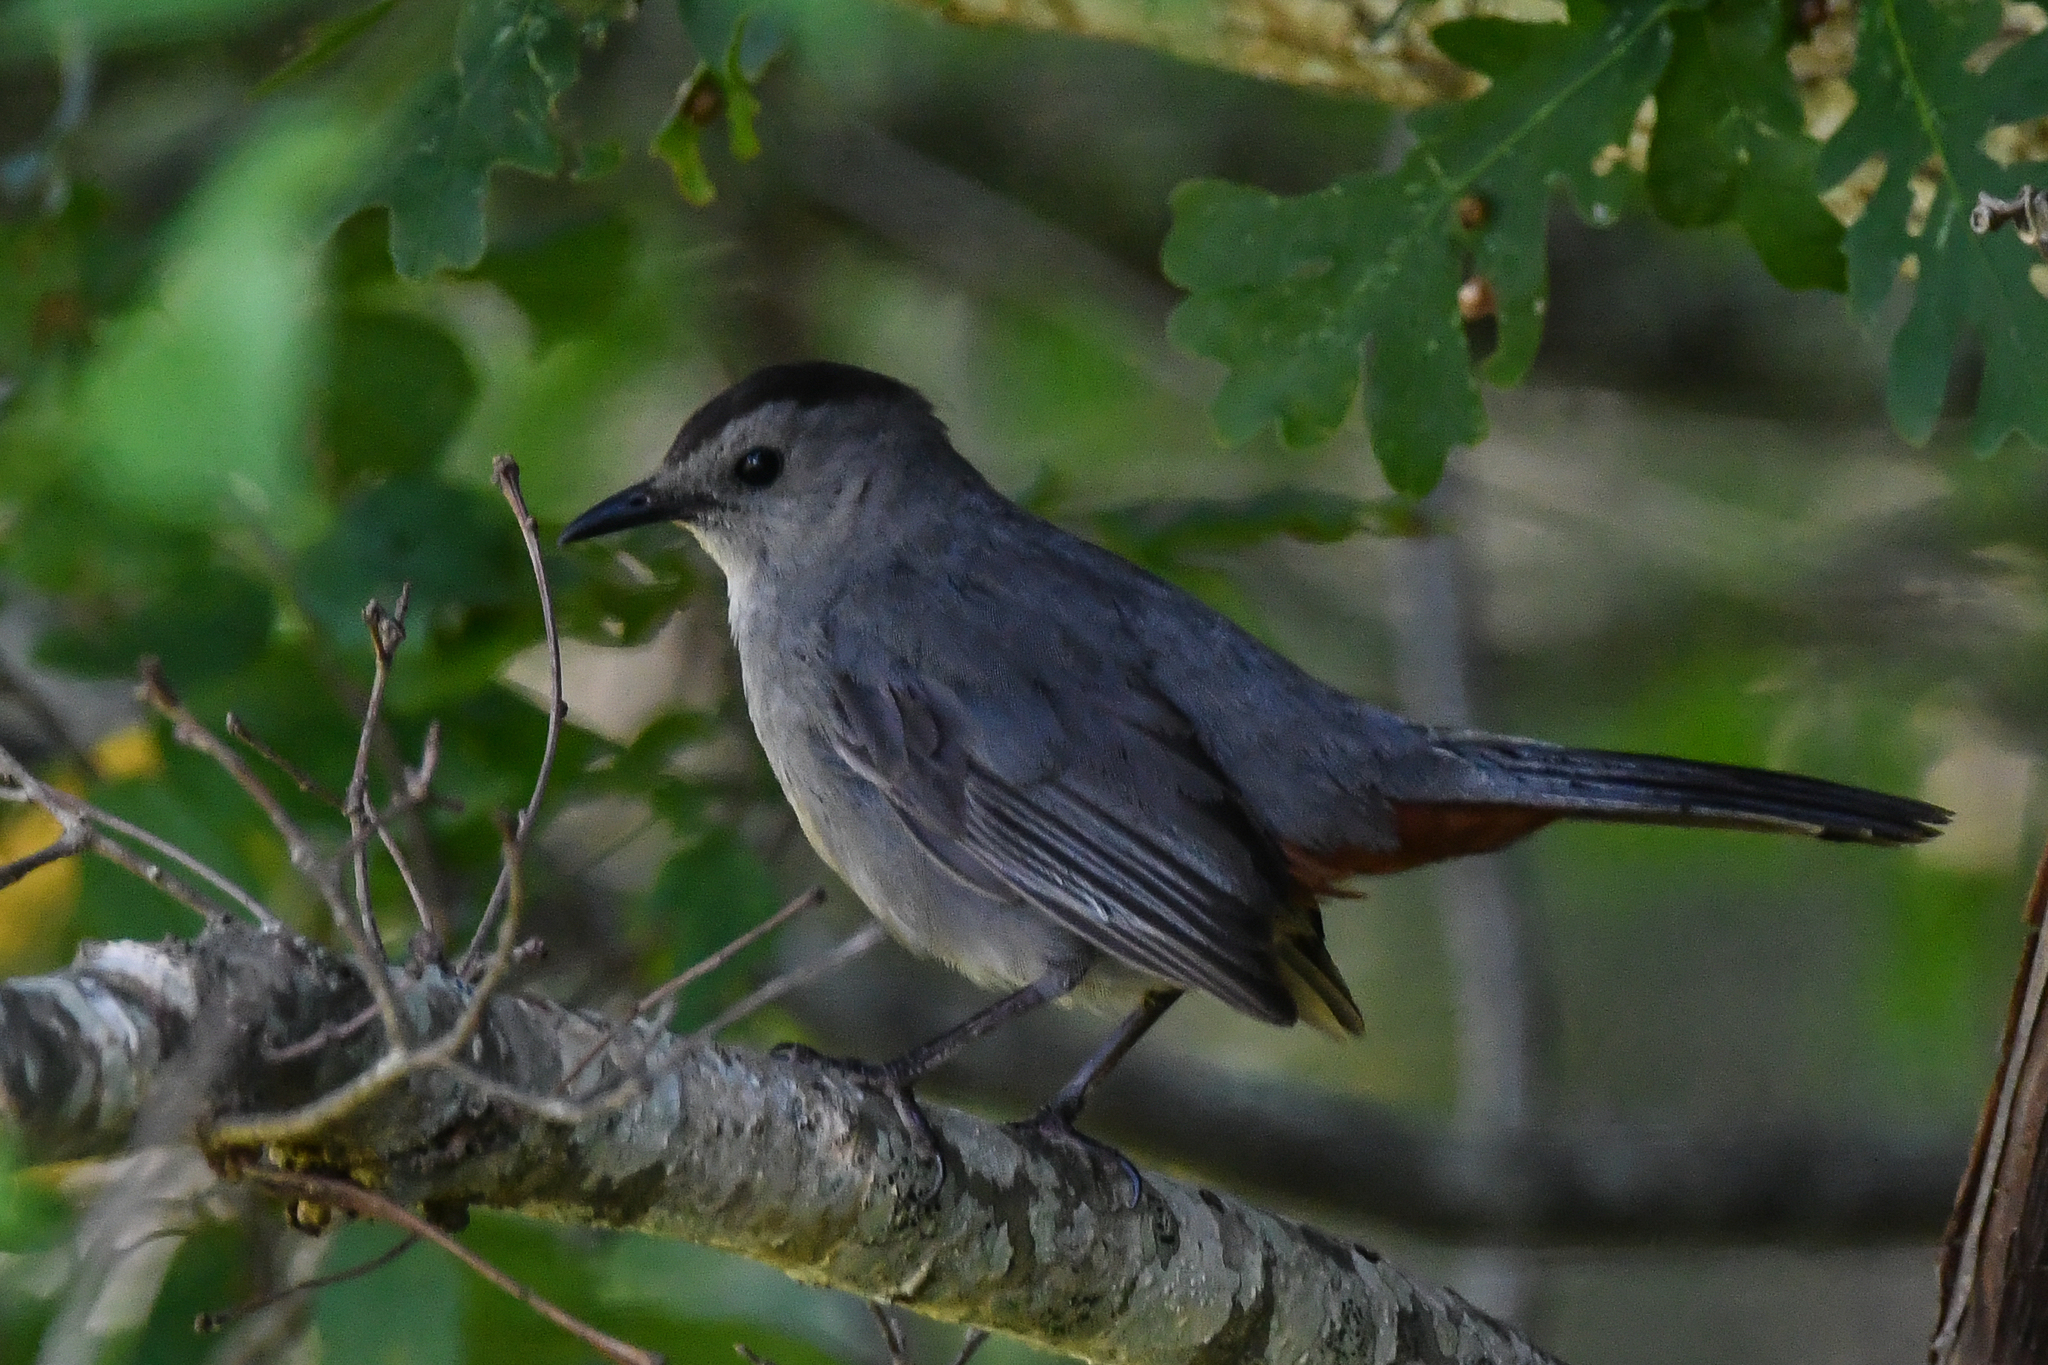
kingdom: Animalia
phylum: Chordata
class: Aves
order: Passeriformes
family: Mimidae
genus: Dumetella
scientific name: Dumetella carolinensis
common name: Gray catbird
